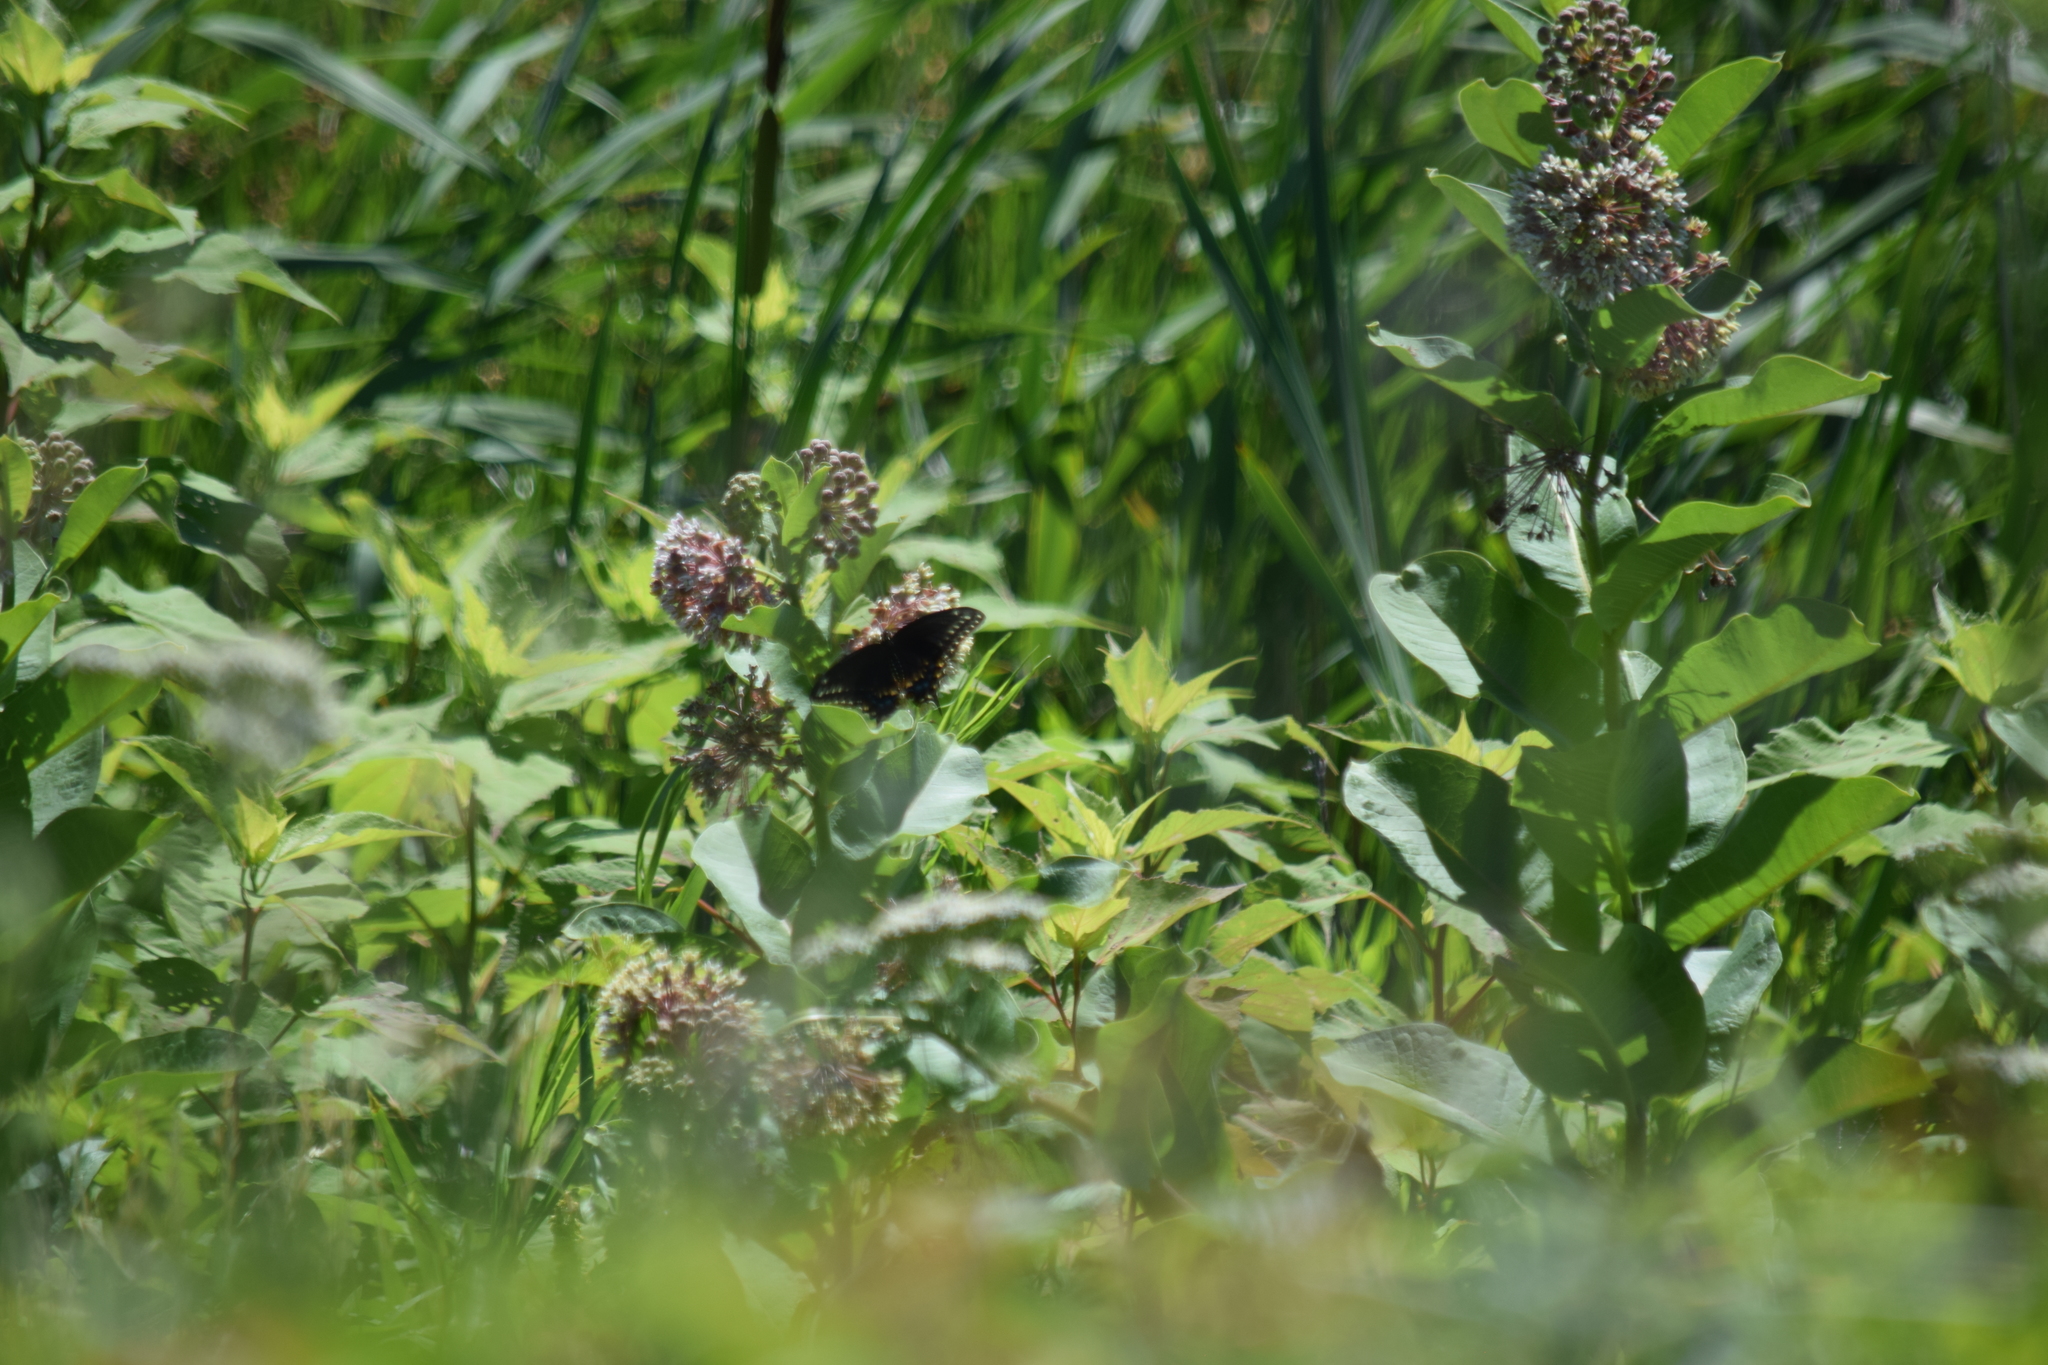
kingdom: Animalia
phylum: Arthropoda
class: Insecta
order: Lepidoptera
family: Papilionidae
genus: Papilio
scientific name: Papilio polyxenes
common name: Black swallowtail
